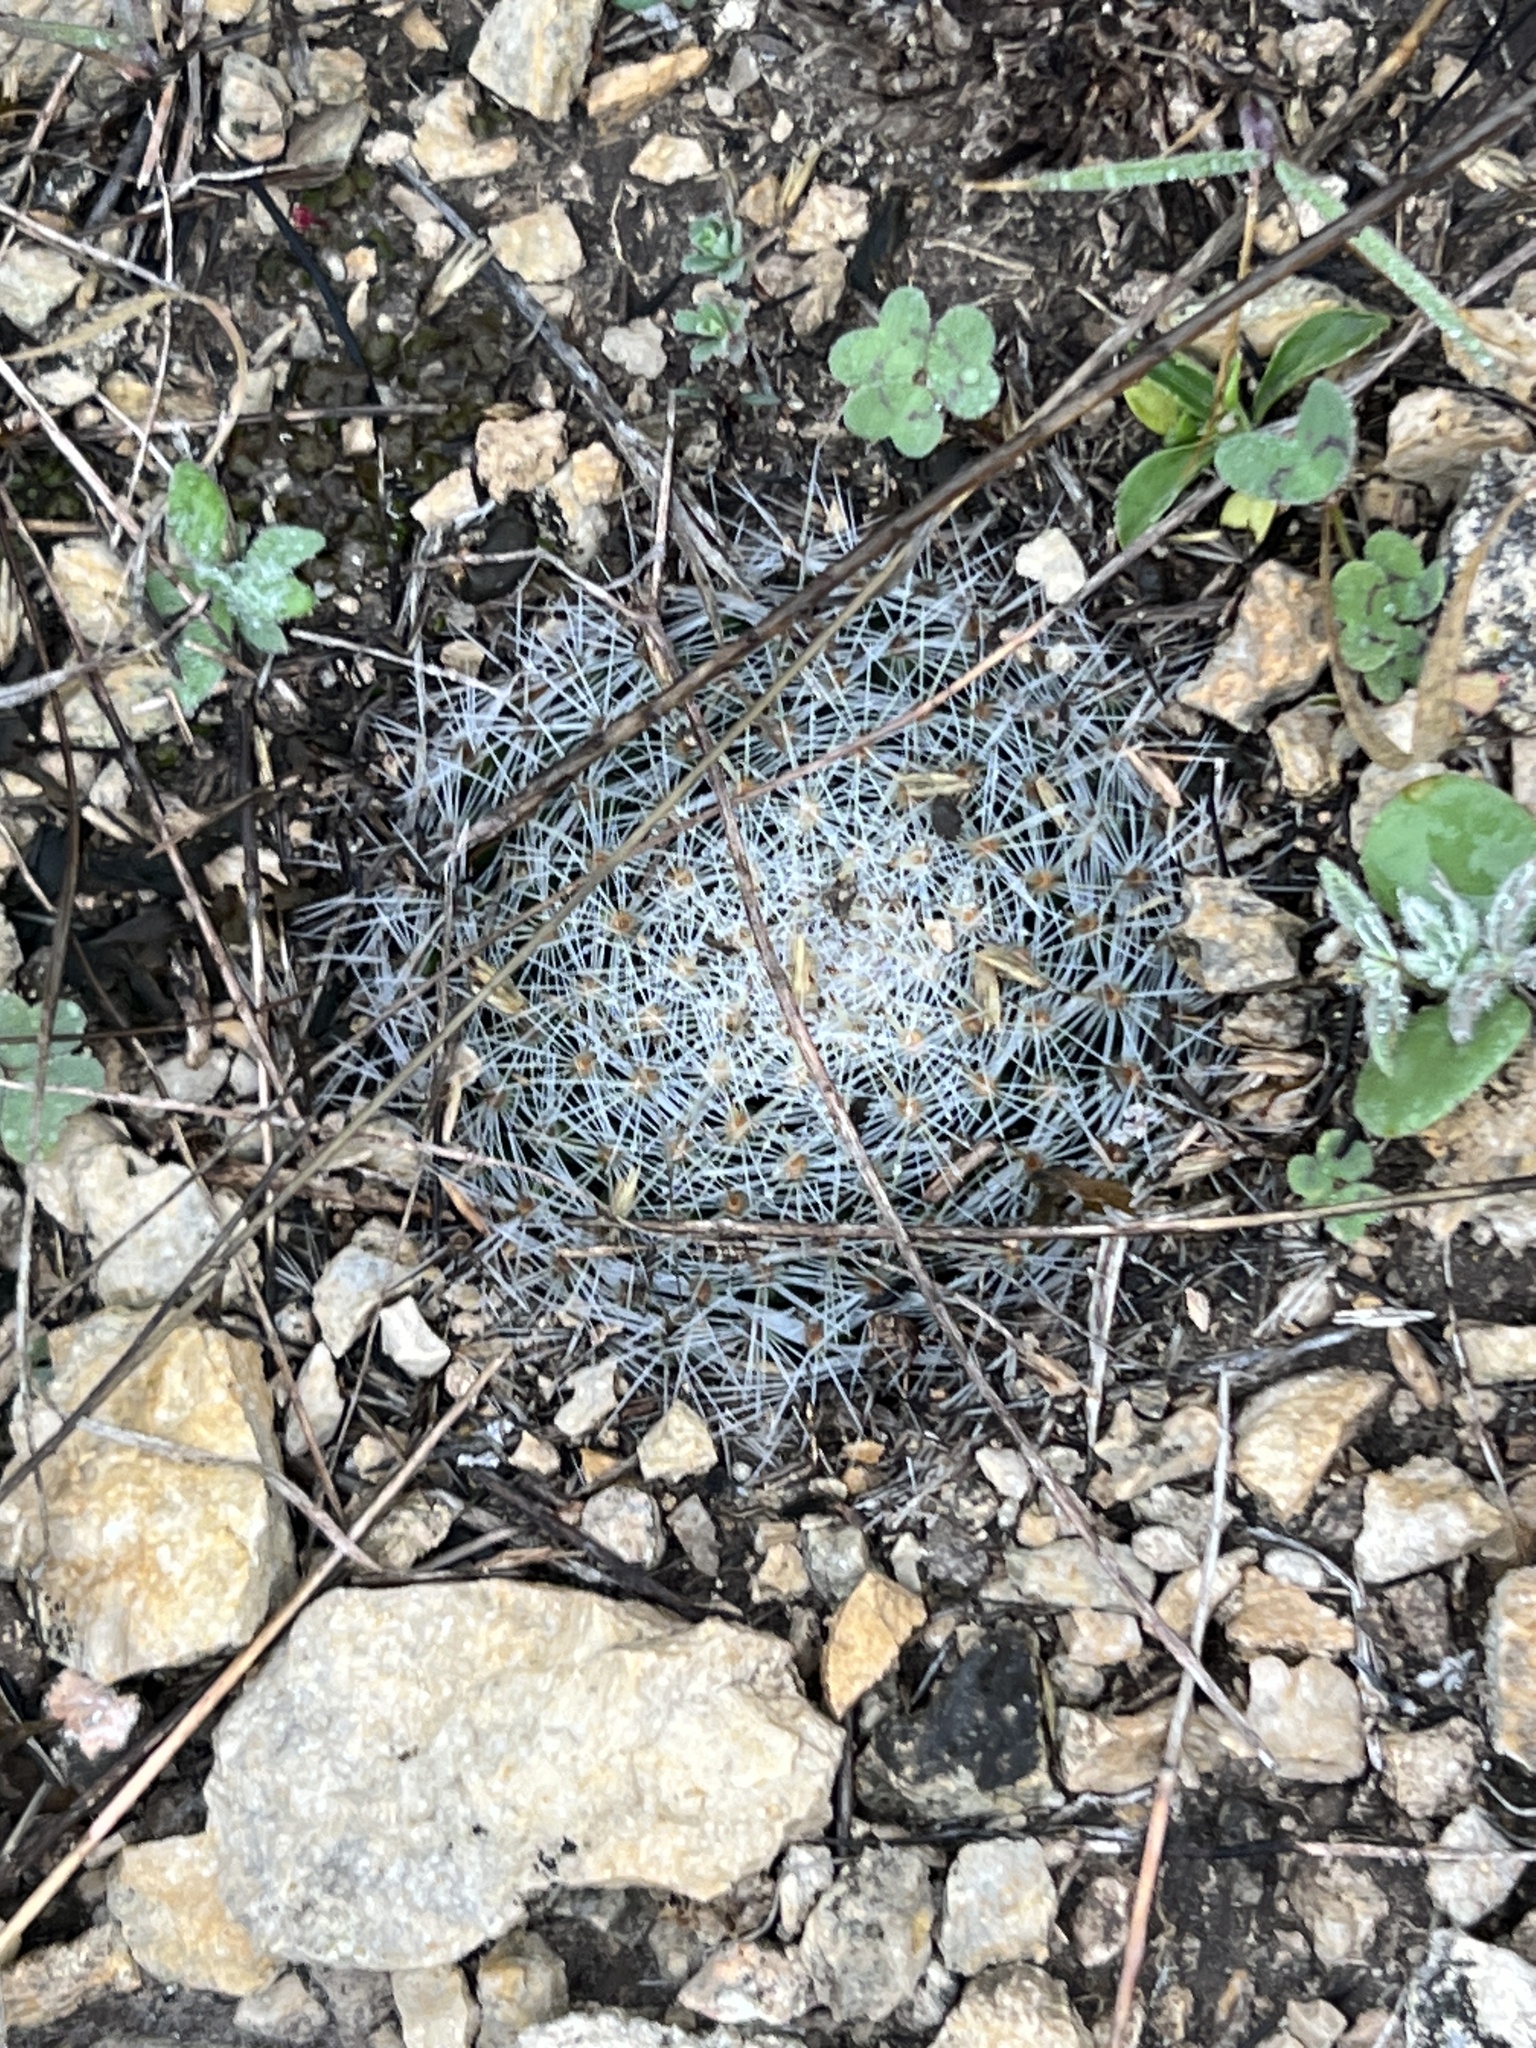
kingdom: Plantae
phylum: Tracheophyta
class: Magnoliopsida
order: Caryophyllales
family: Cactaceae
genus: Mammillaria
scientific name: Mammillaria heyderi
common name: Little nipple cactus
